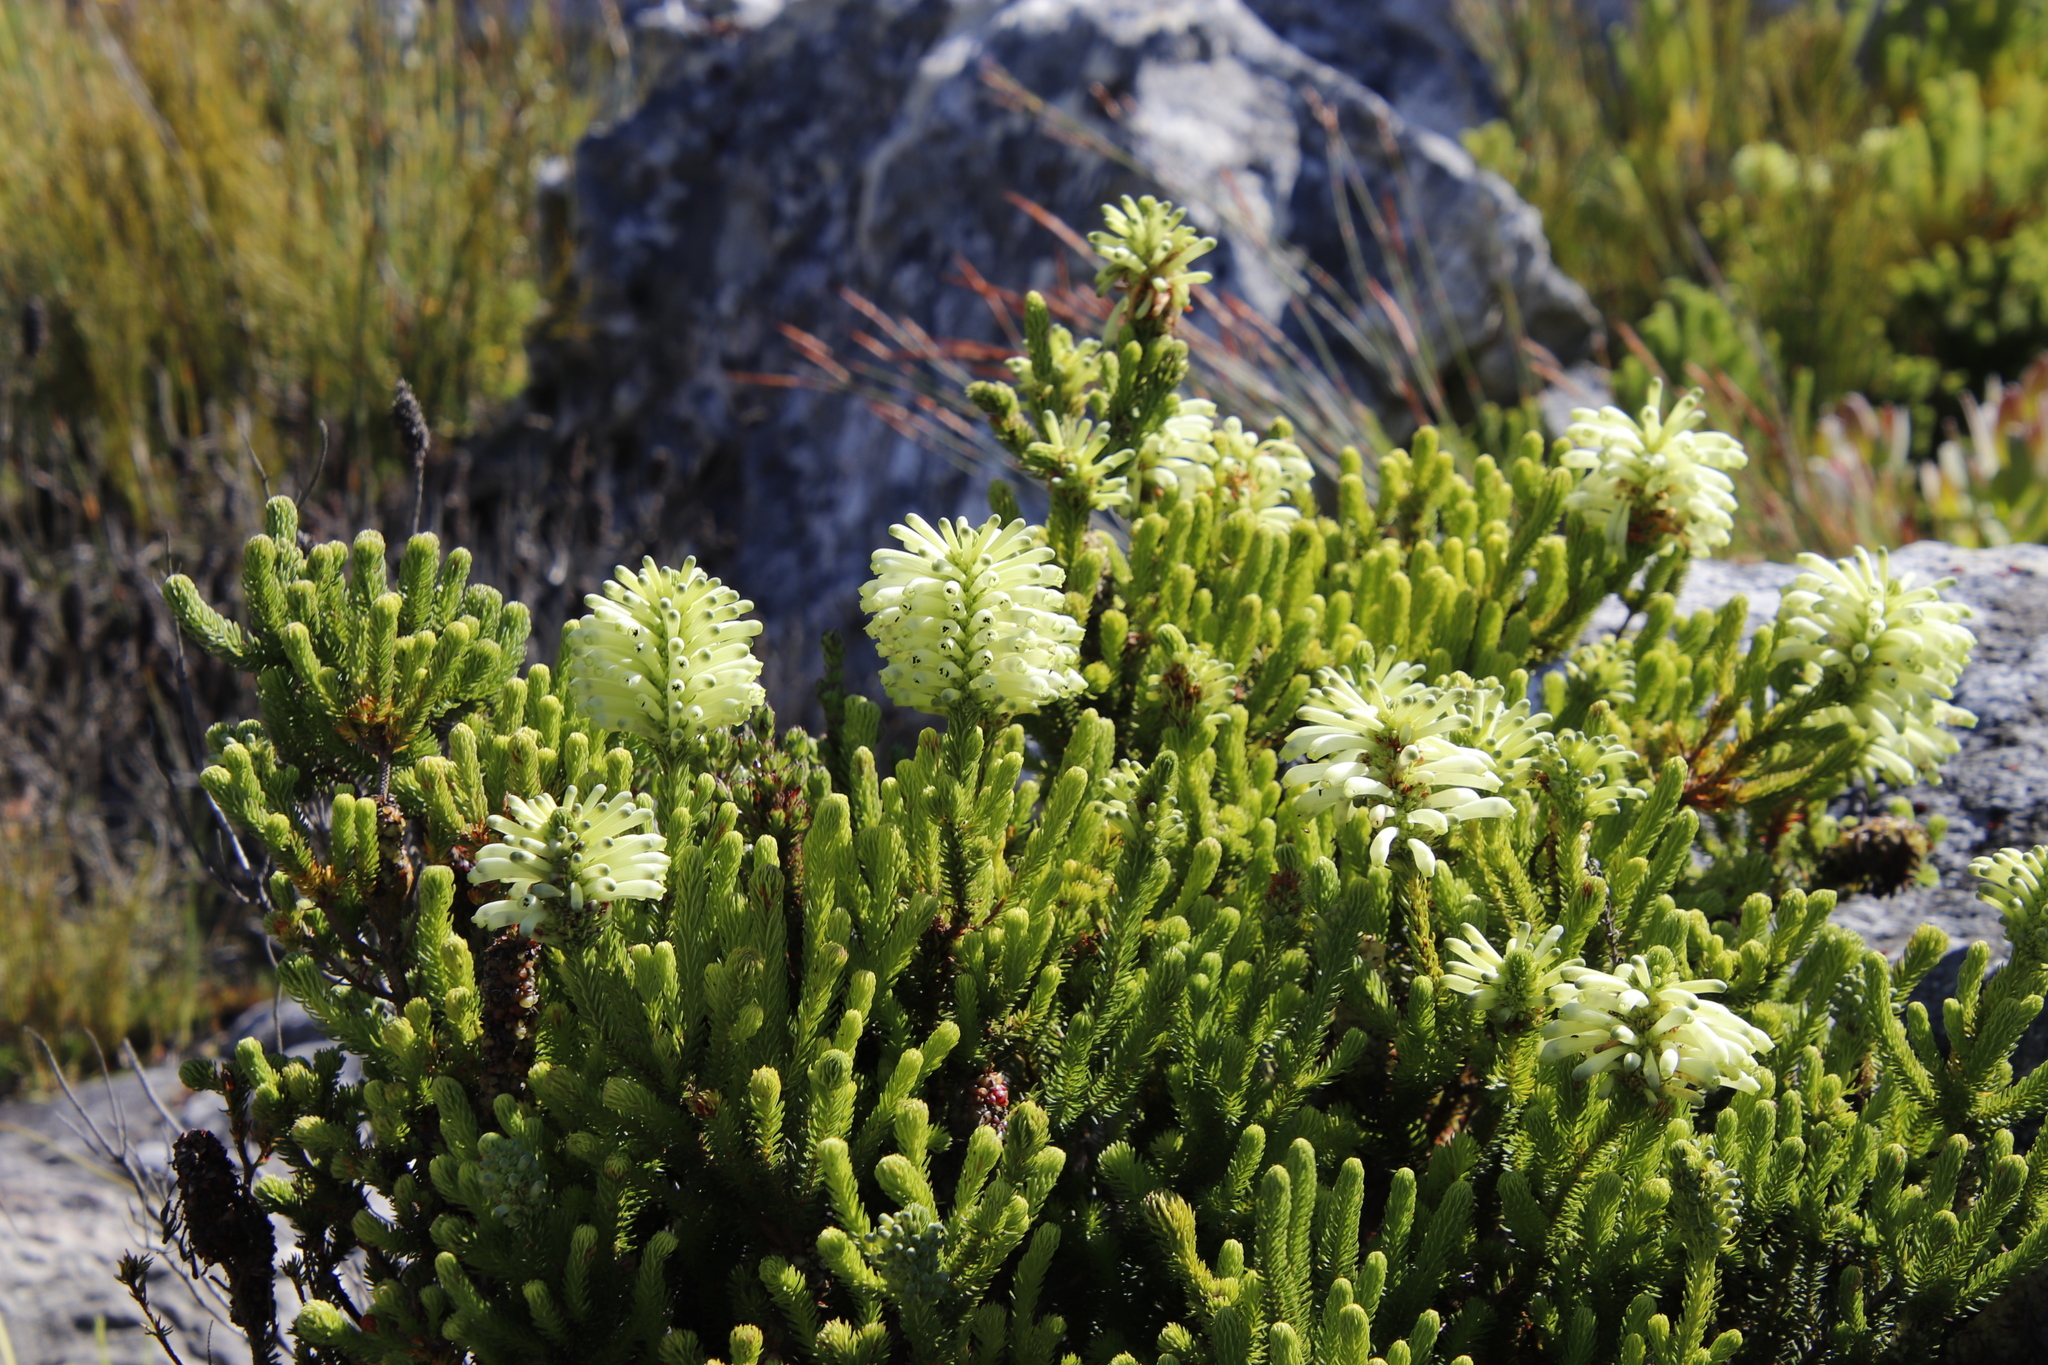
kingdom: Plantae
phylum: Tracheophyta
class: Magnoliopsida
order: Ericales
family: Ericaceae
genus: Erica
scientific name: Erica sessiliflora
